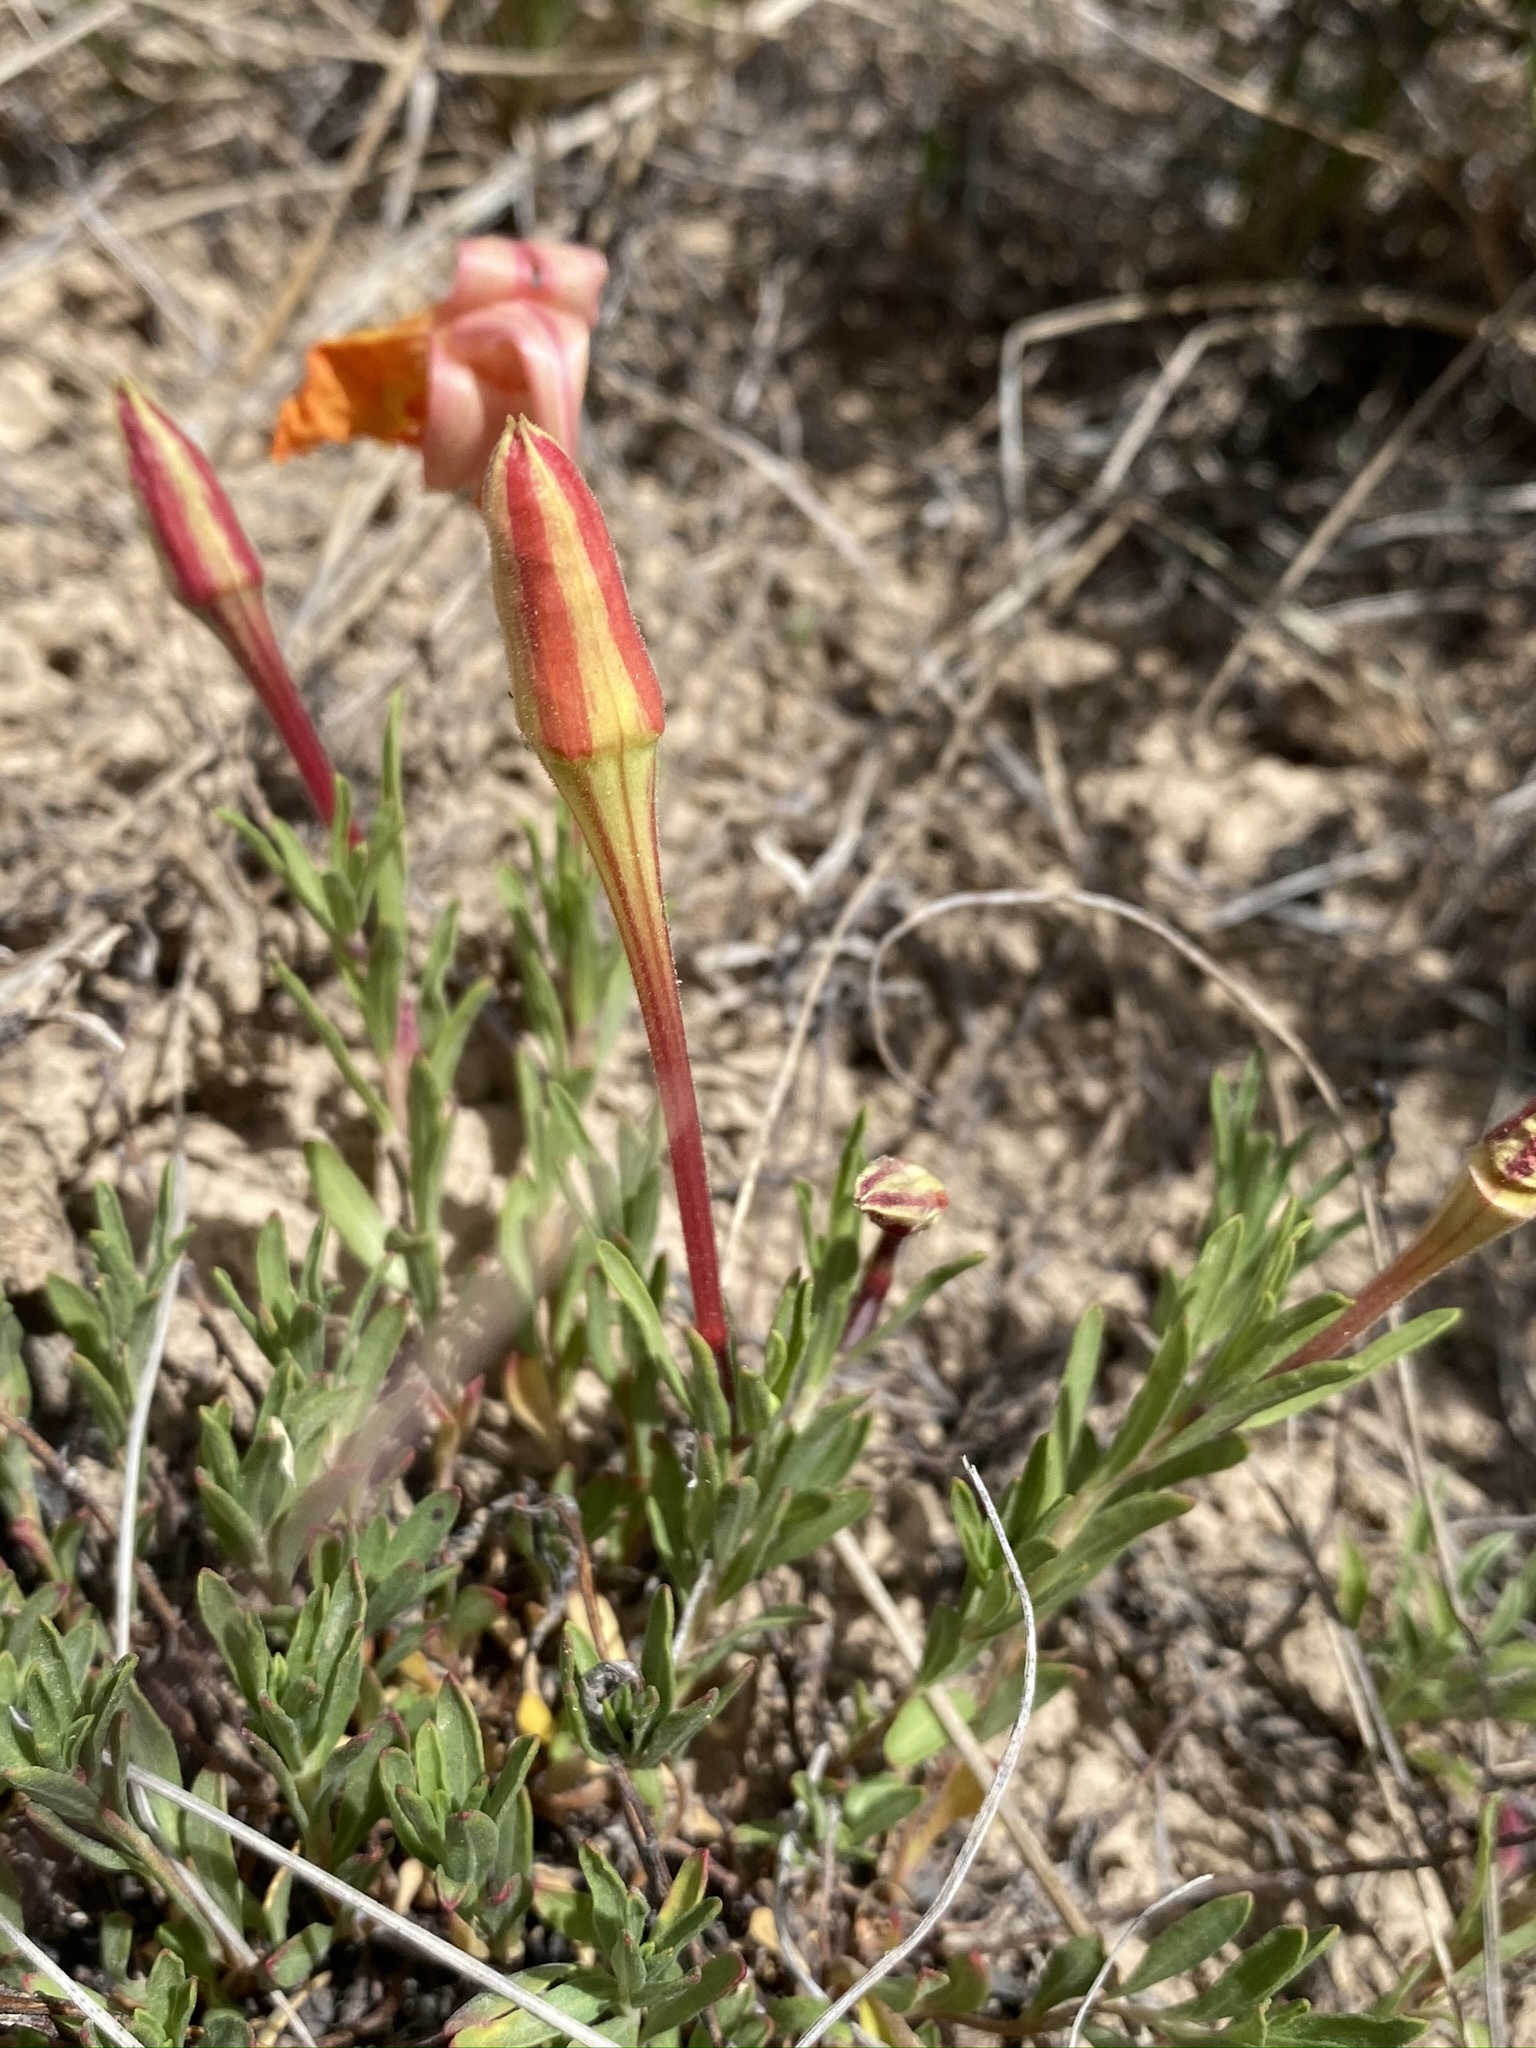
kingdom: Plantae
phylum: Tracheophyta
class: Magnoliopsida
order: Myrtales
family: Onagraceae
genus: Oenothera
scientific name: Oenothera lavandulifolia
